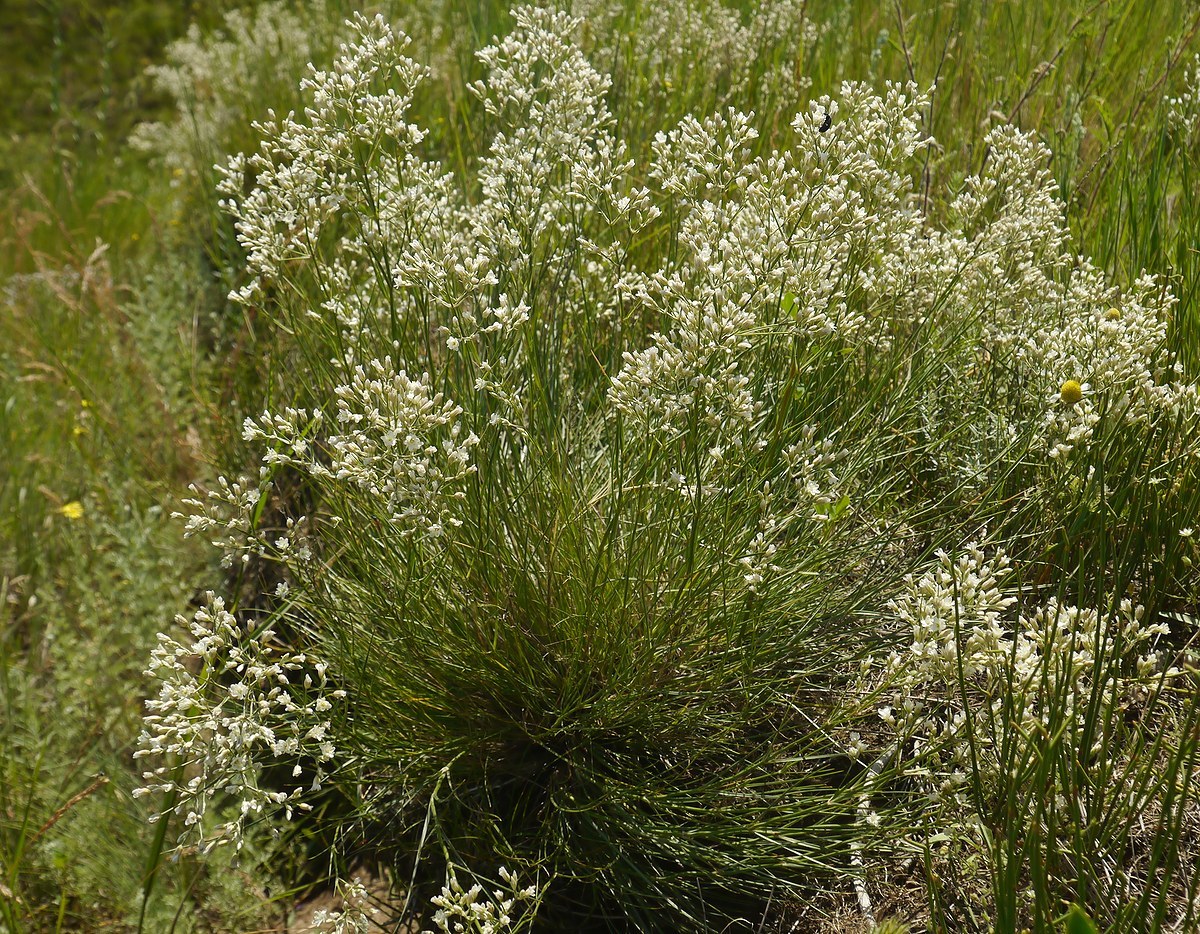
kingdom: Plantae
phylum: Tracheophyta
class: Magnoliopsida
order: Caryophyllales
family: Caryophyllaceae
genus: Eremogone
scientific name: Eremogone rigida
